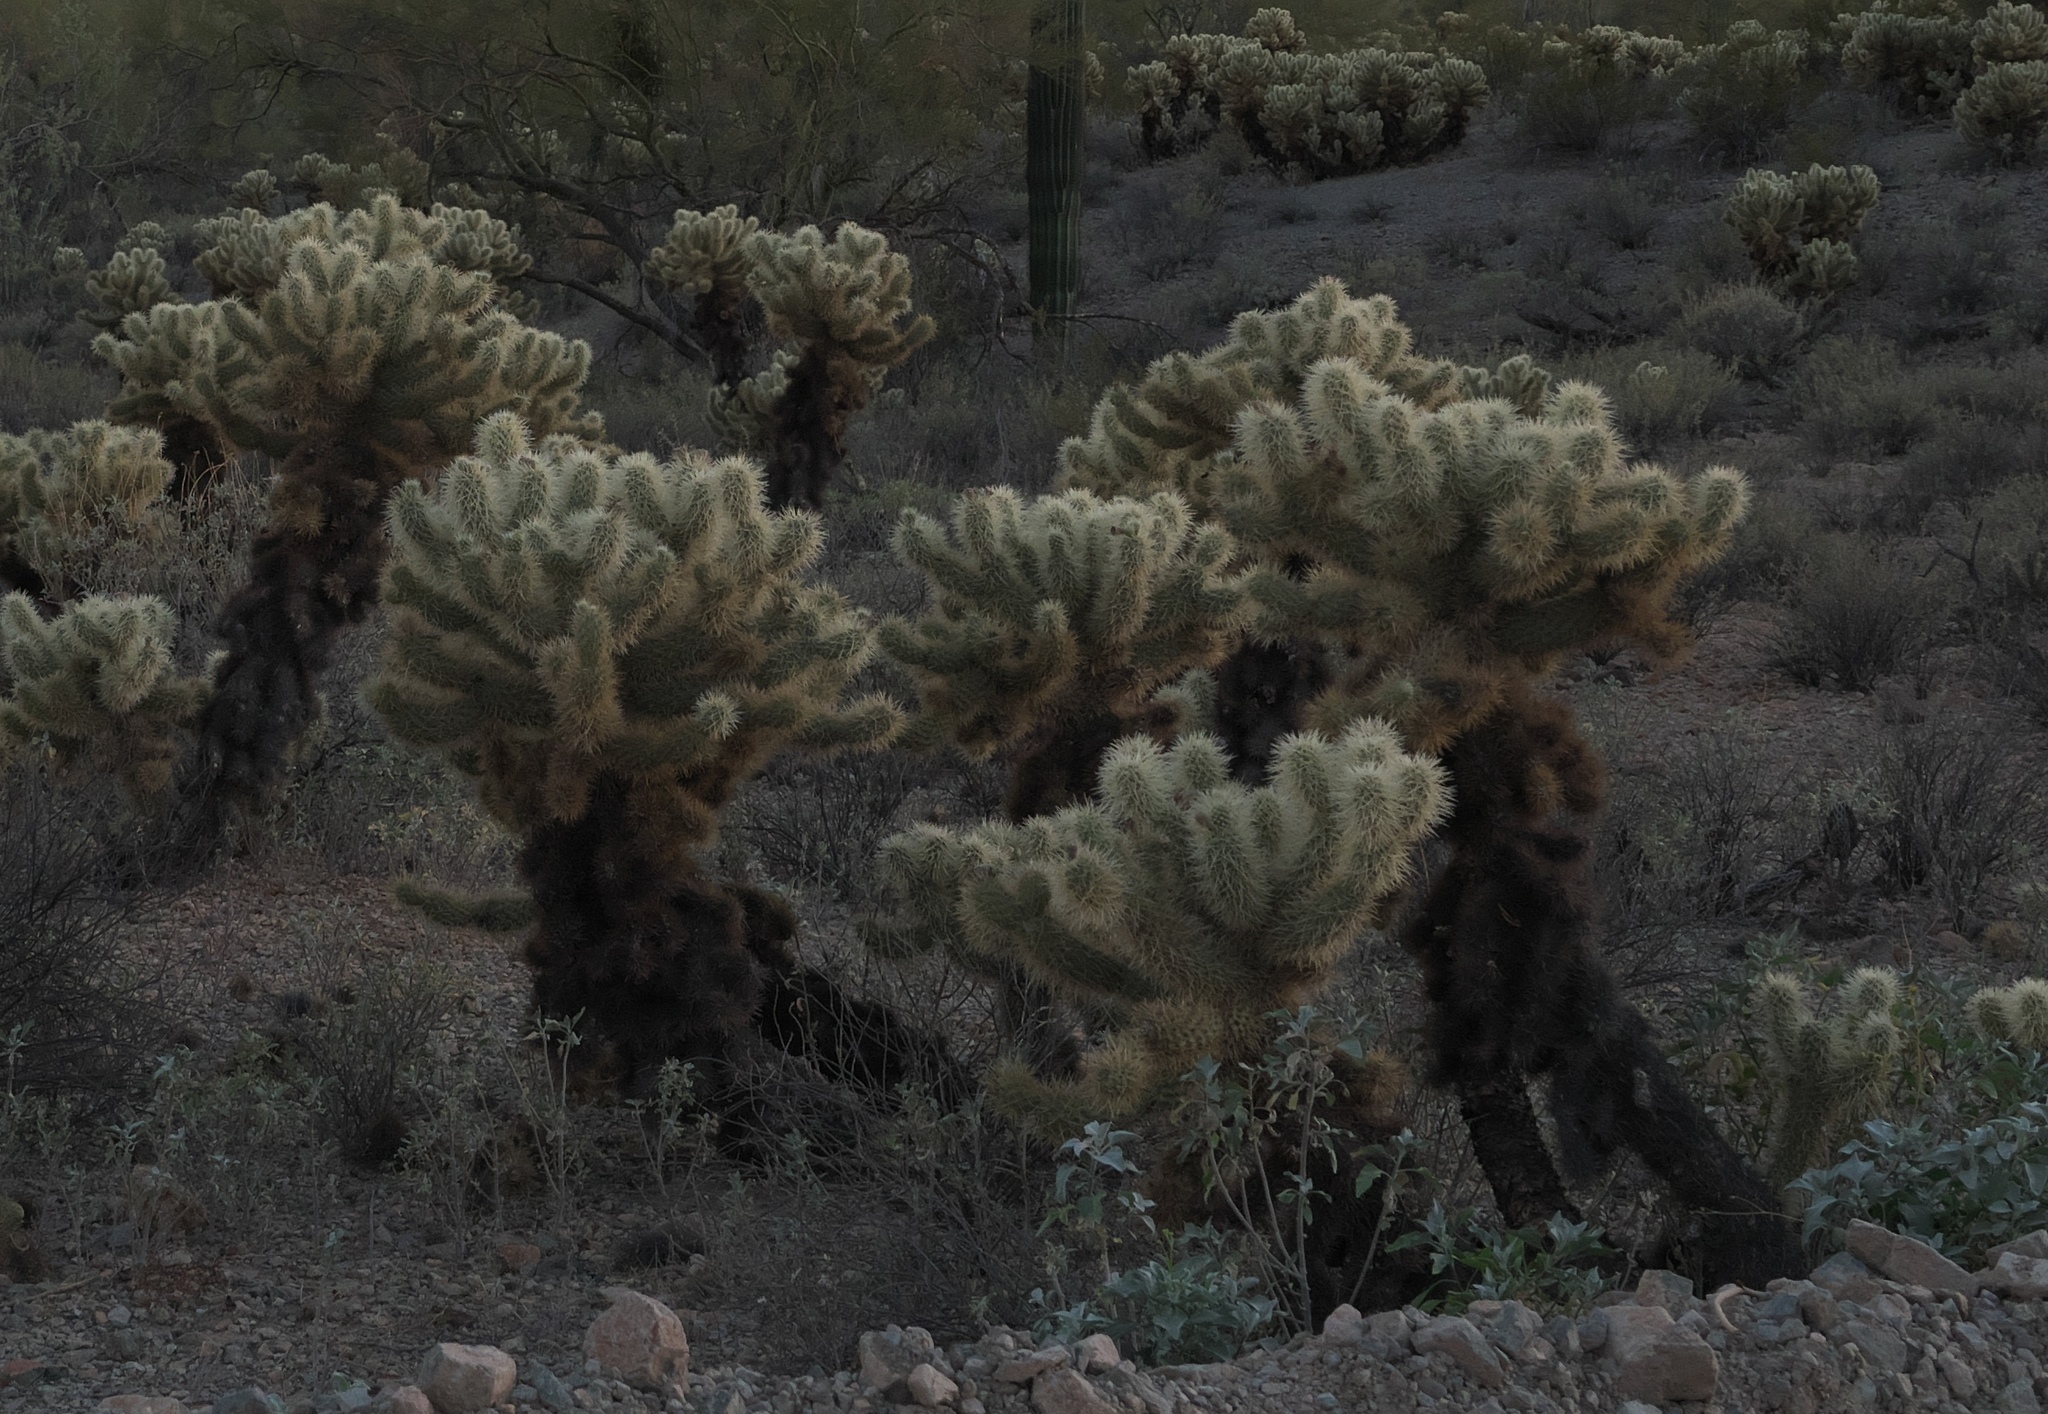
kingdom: Plantae
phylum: Tracheophyta
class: Magnoliopsida
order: Caryophyllales
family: Cactaceae
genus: Cylindropuntia
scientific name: Cylindropuntia fosbergii
